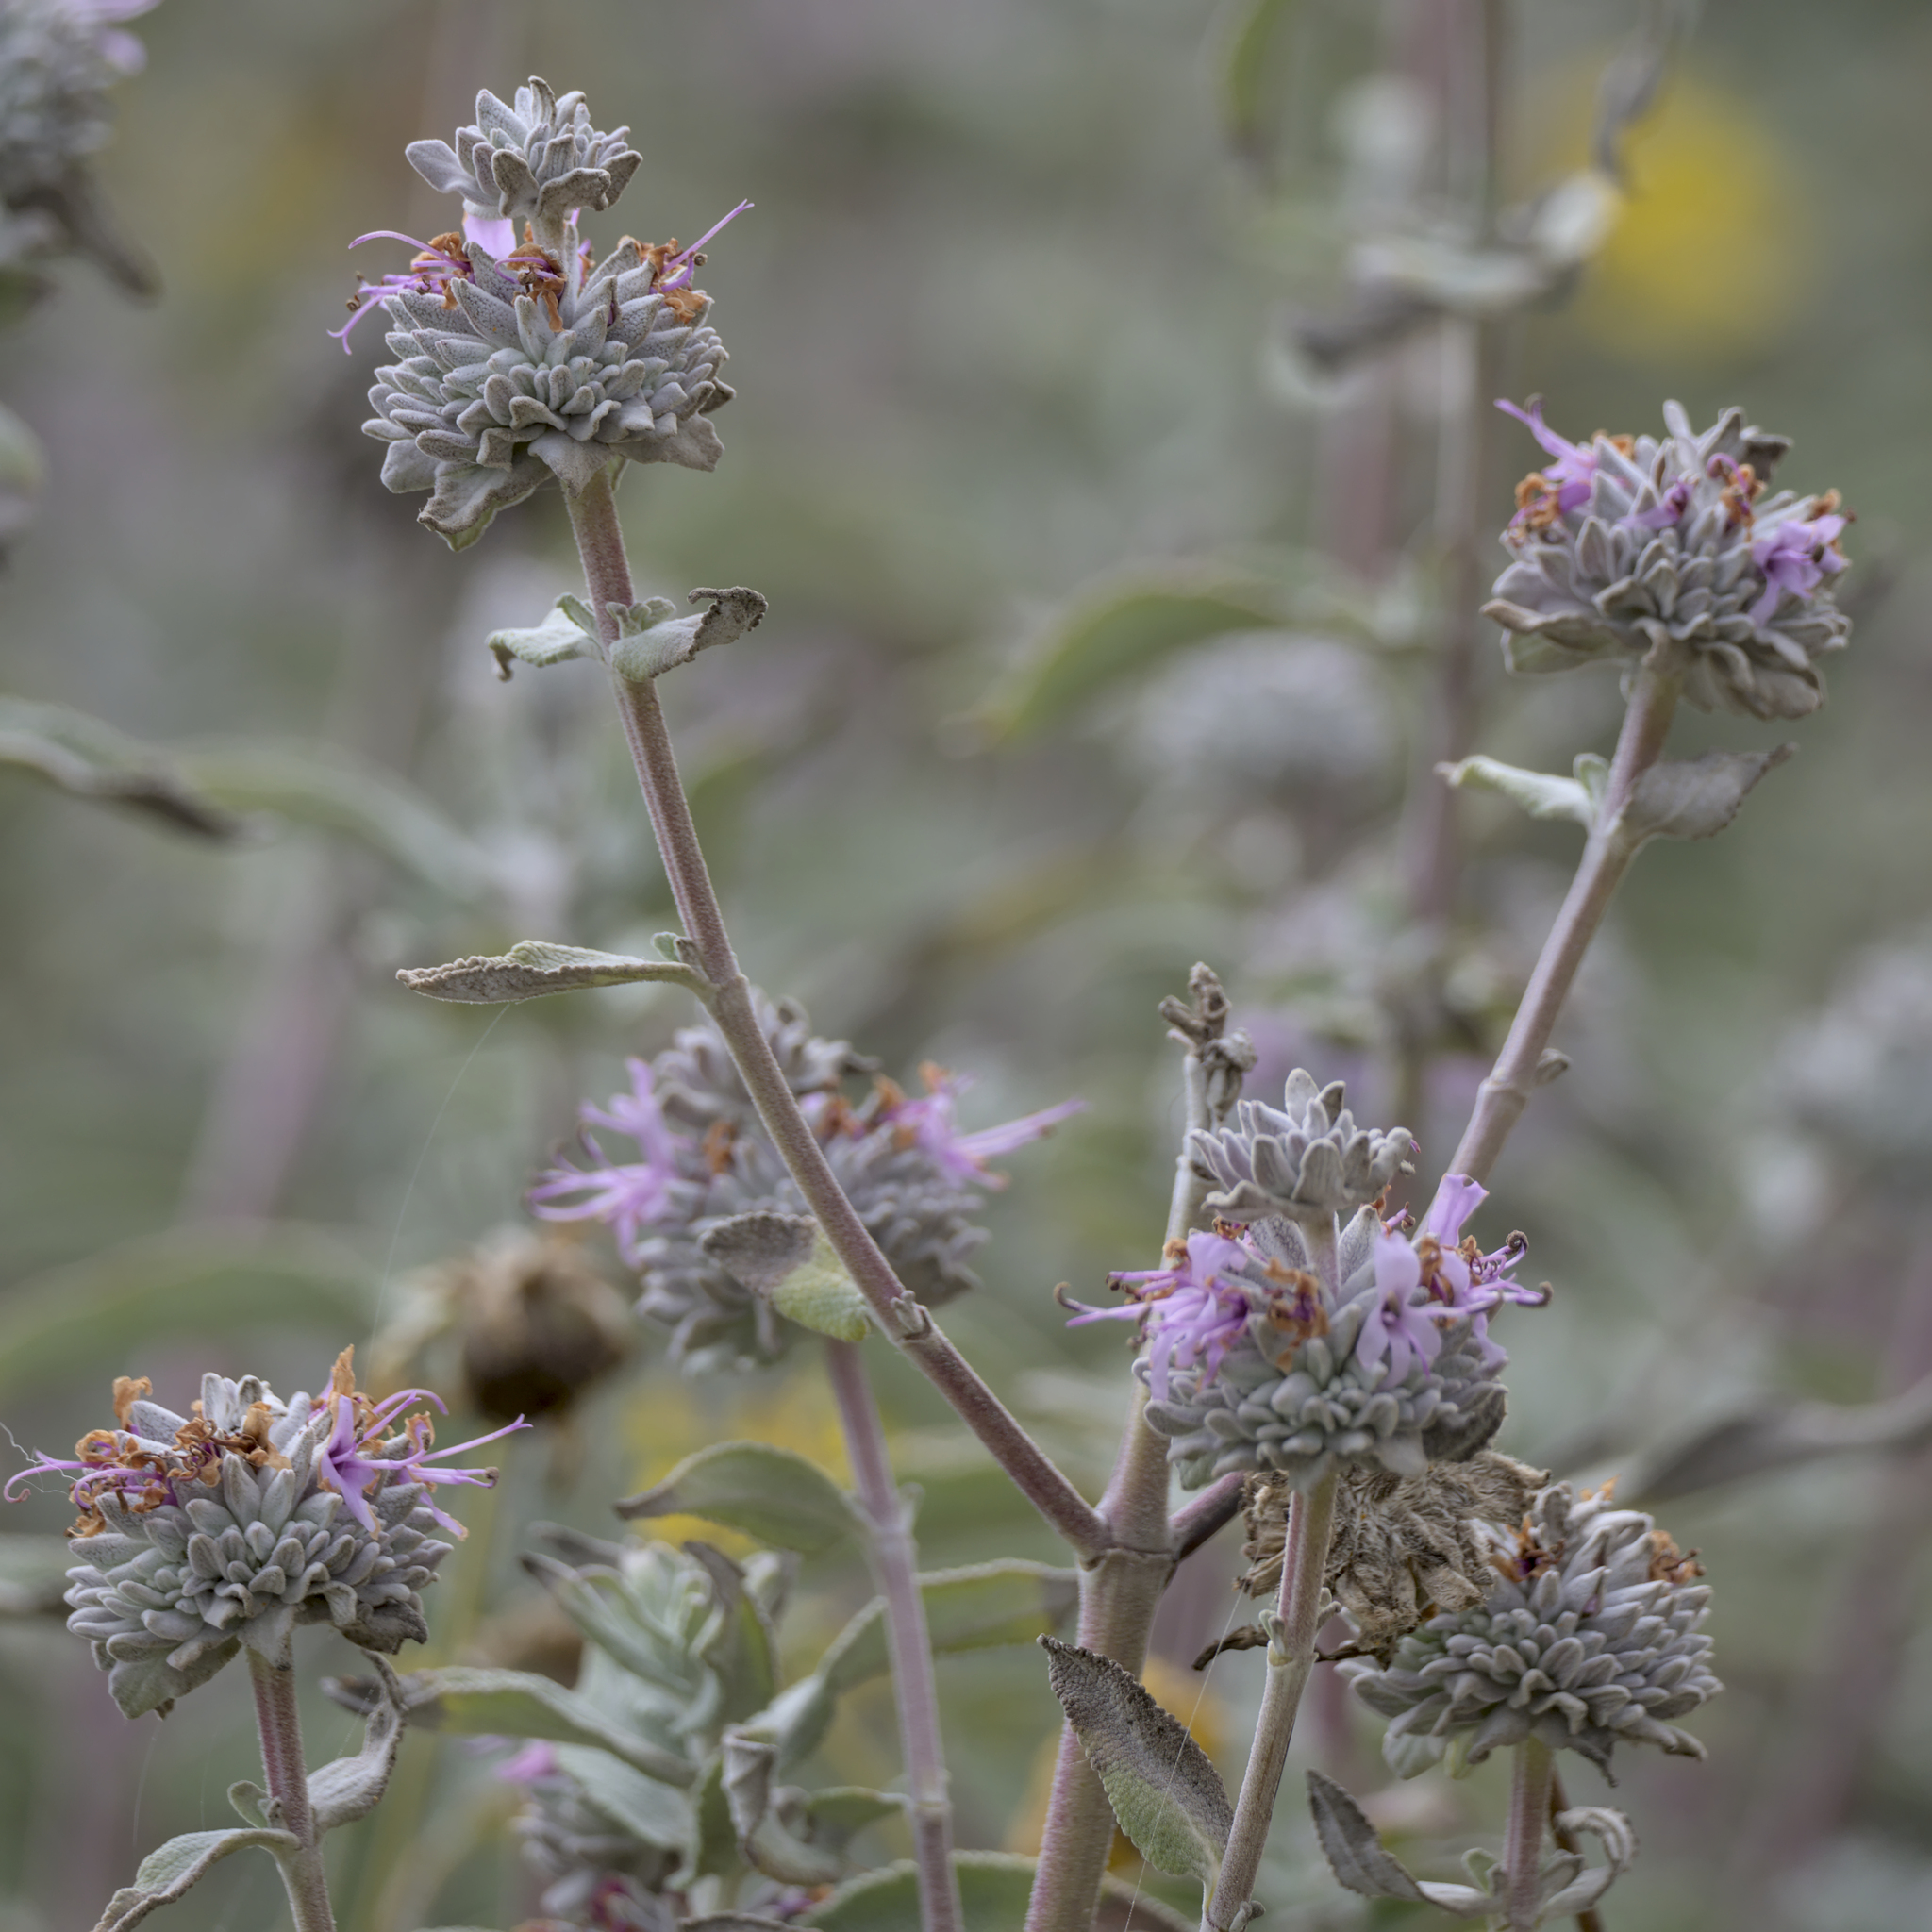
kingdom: Plantae
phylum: Tracheophyta
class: Magnoliopsida
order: Lamiales
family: Lamiaceae
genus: Salvia
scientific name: Salvia leucophylla
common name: Purple sage
